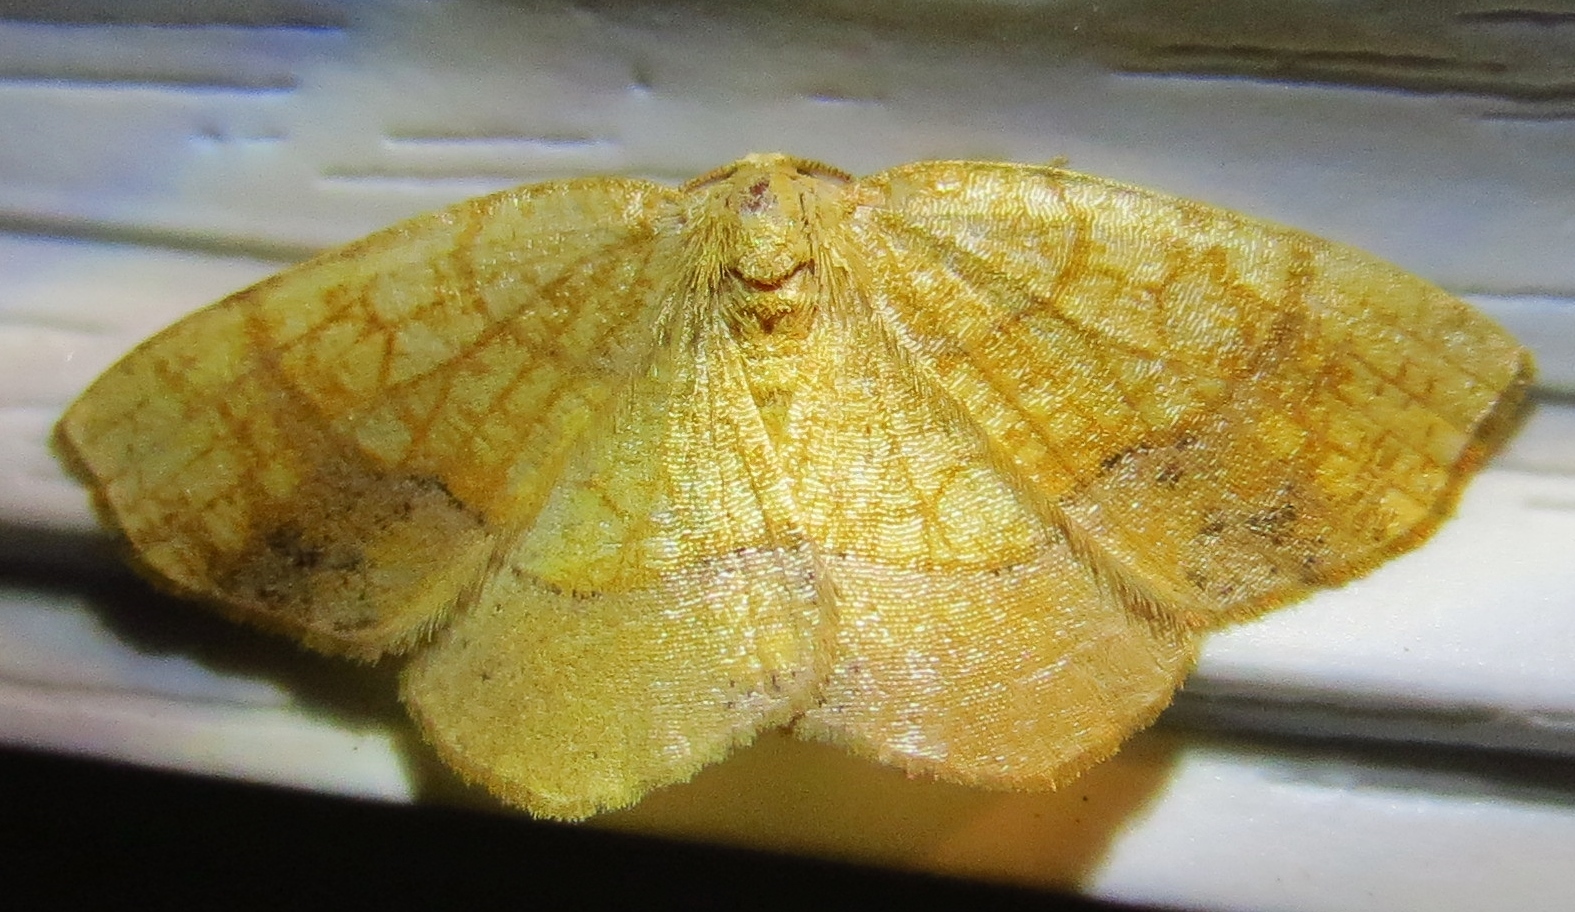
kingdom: Animalia
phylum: Arthropoda
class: Insecta
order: Lepidoptera
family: Geometridae
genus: Nematocampa
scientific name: Nematocampa resistaria
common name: Horned spanworm moth
